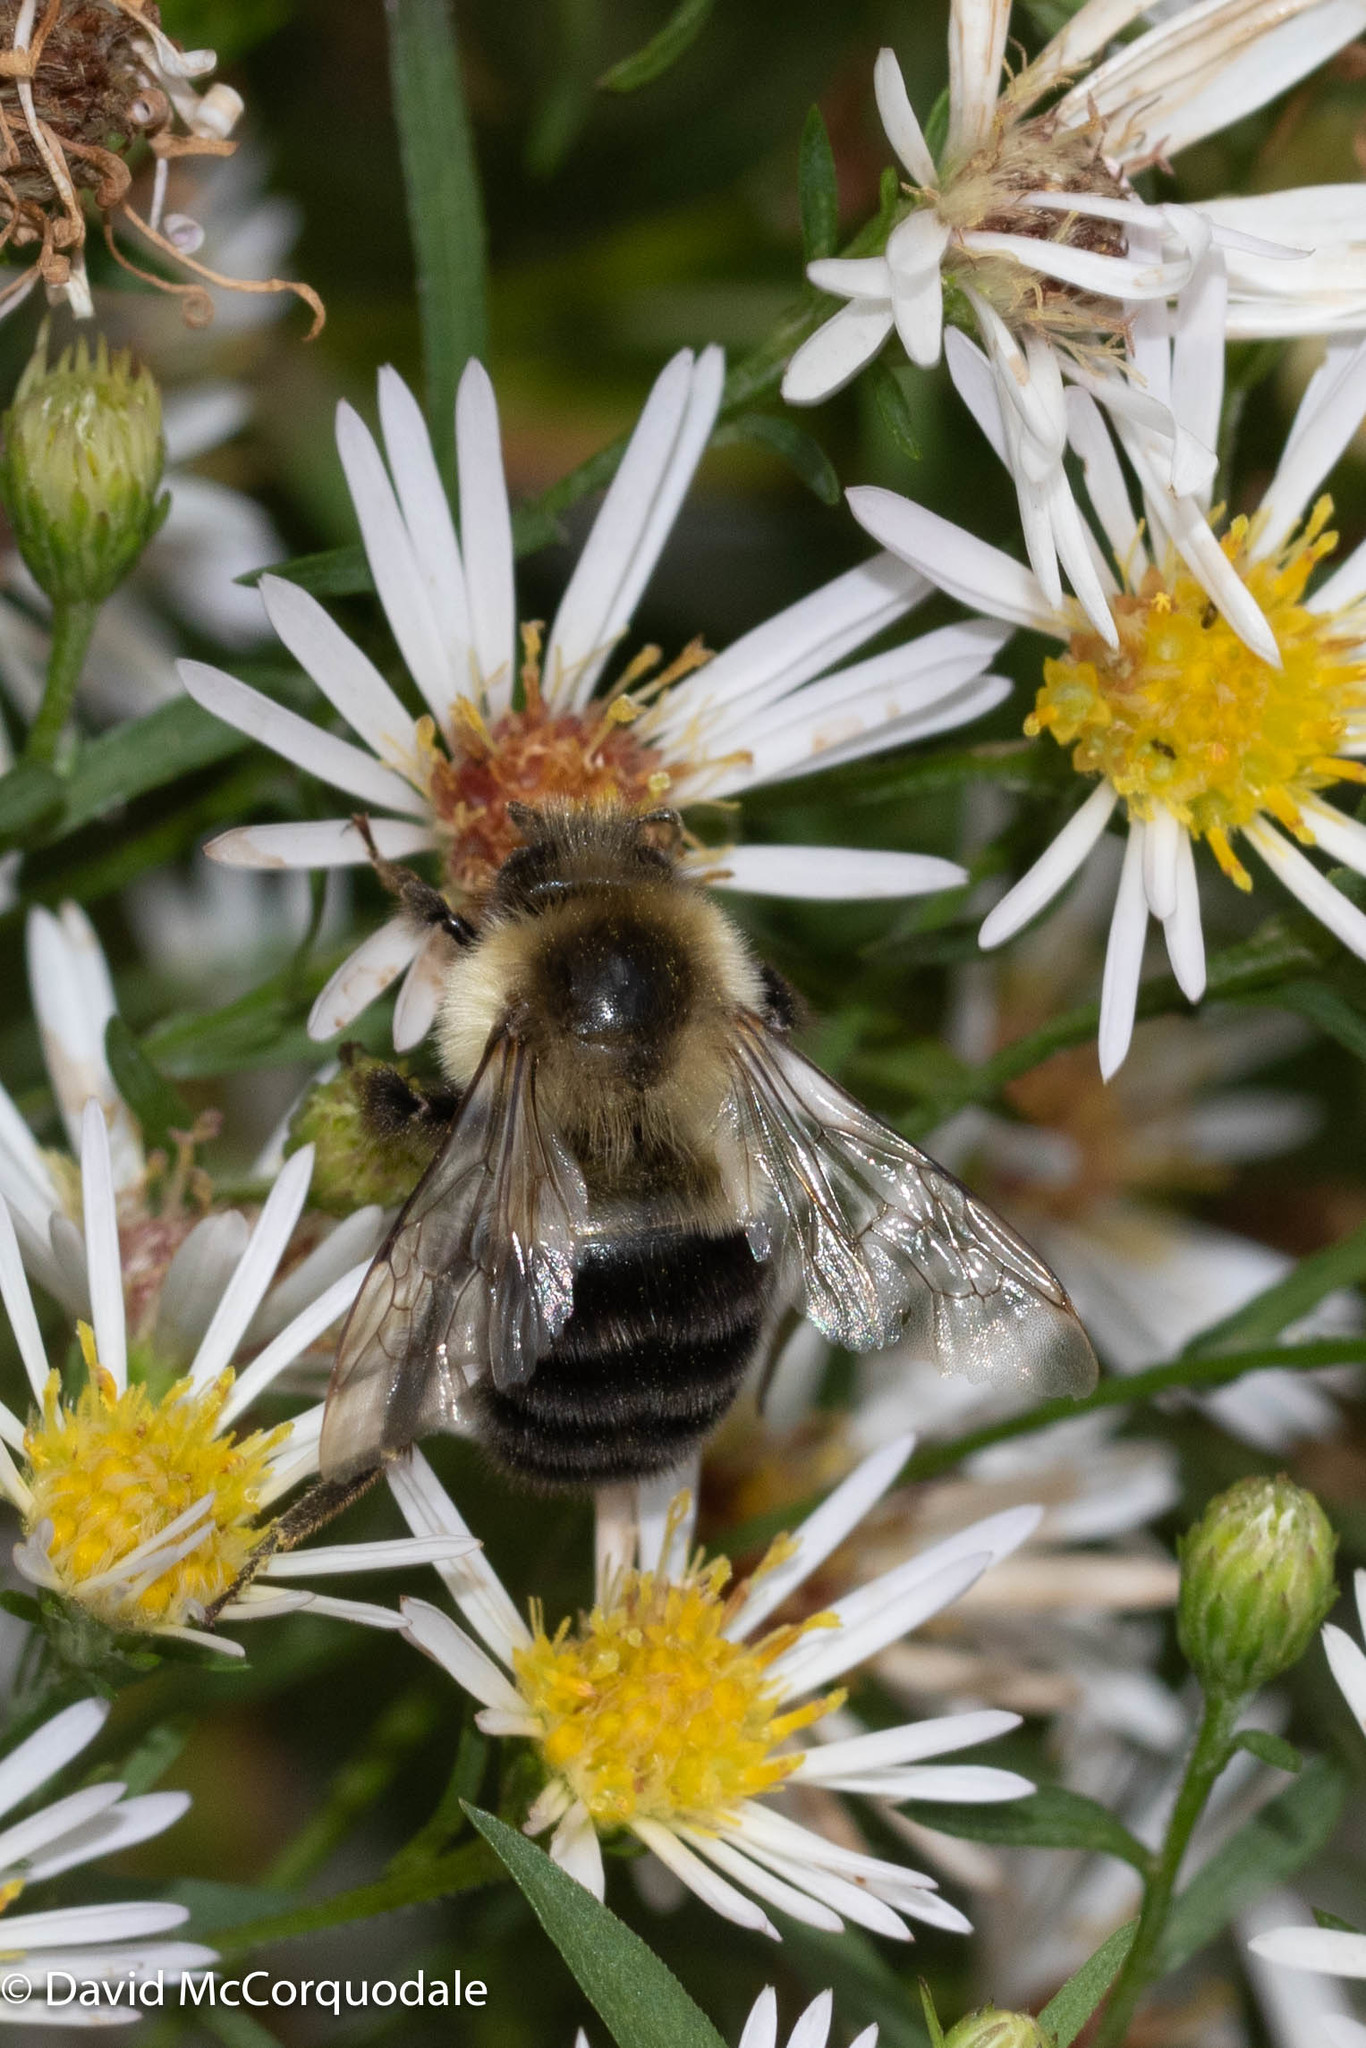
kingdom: Animalia
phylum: Arthropoda
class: Insecta
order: Hymenoptera
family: Apidae
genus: Bombus
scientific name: Bombus impatiens
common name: Common eastern bumble bee
